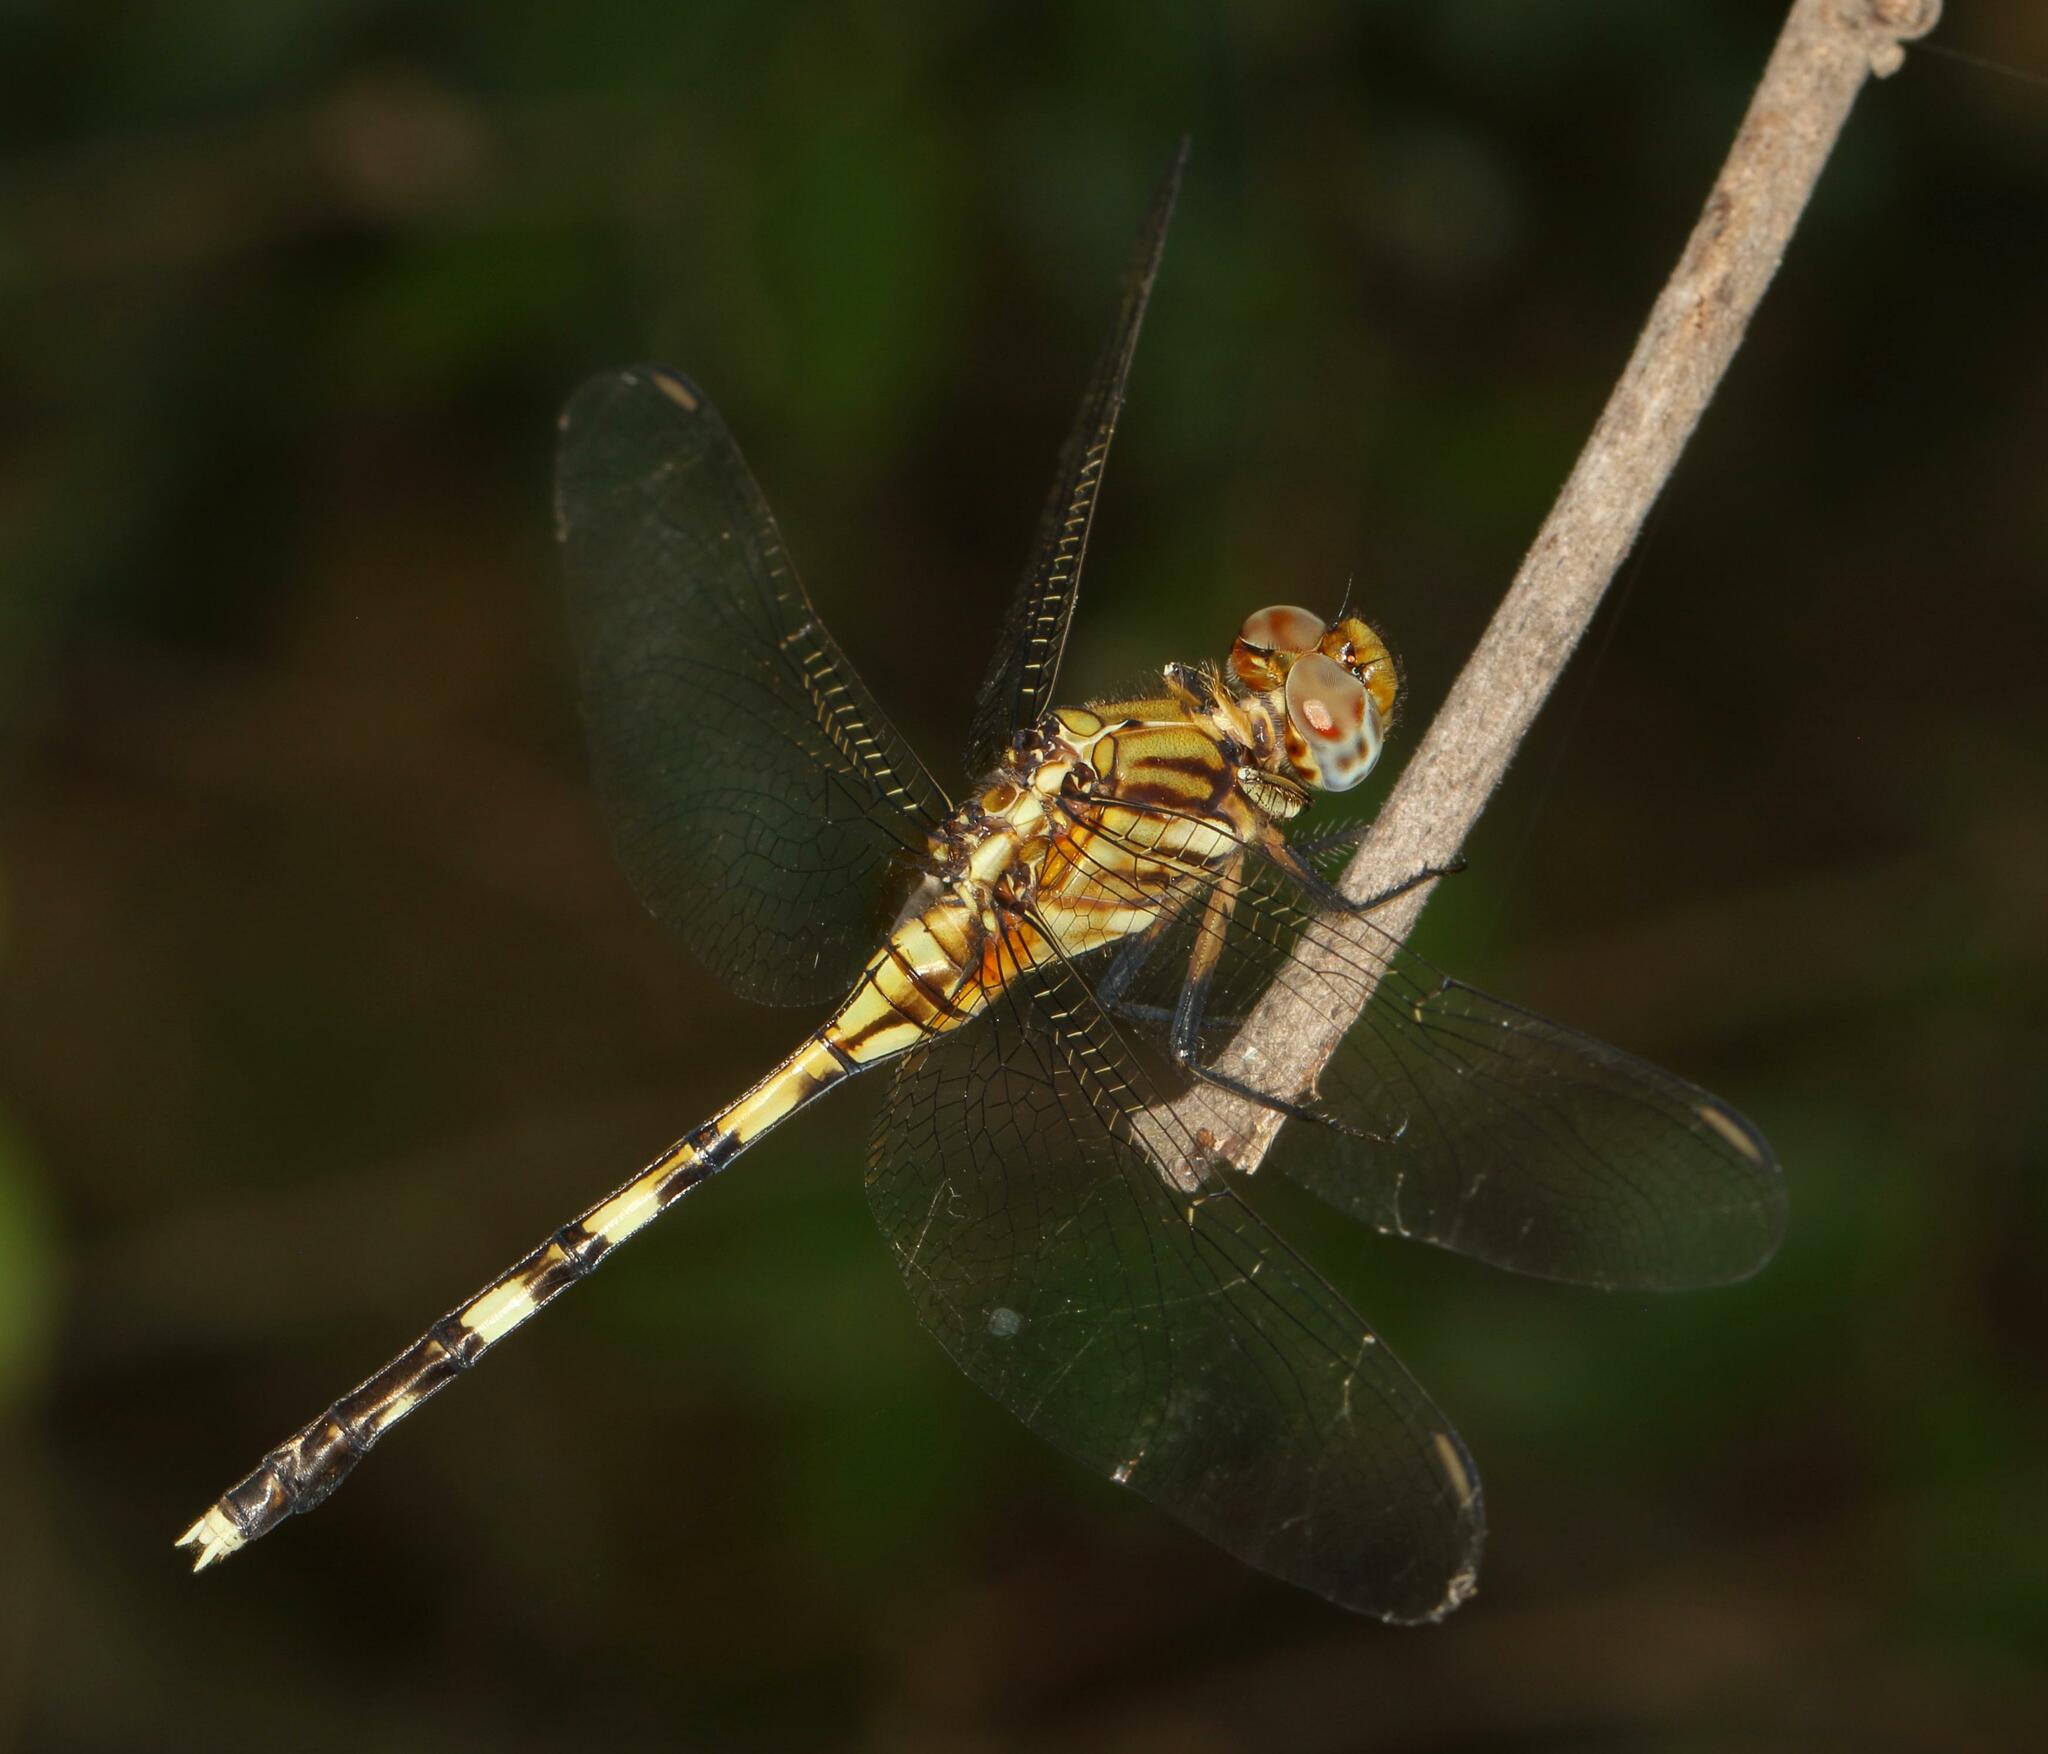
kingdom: Animalia
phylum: Arthropoda
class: Insecta
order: Odonata
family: Libellulidae
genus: Orthetrum
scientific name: Orthetrum stemmale
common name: Bold skimmer
